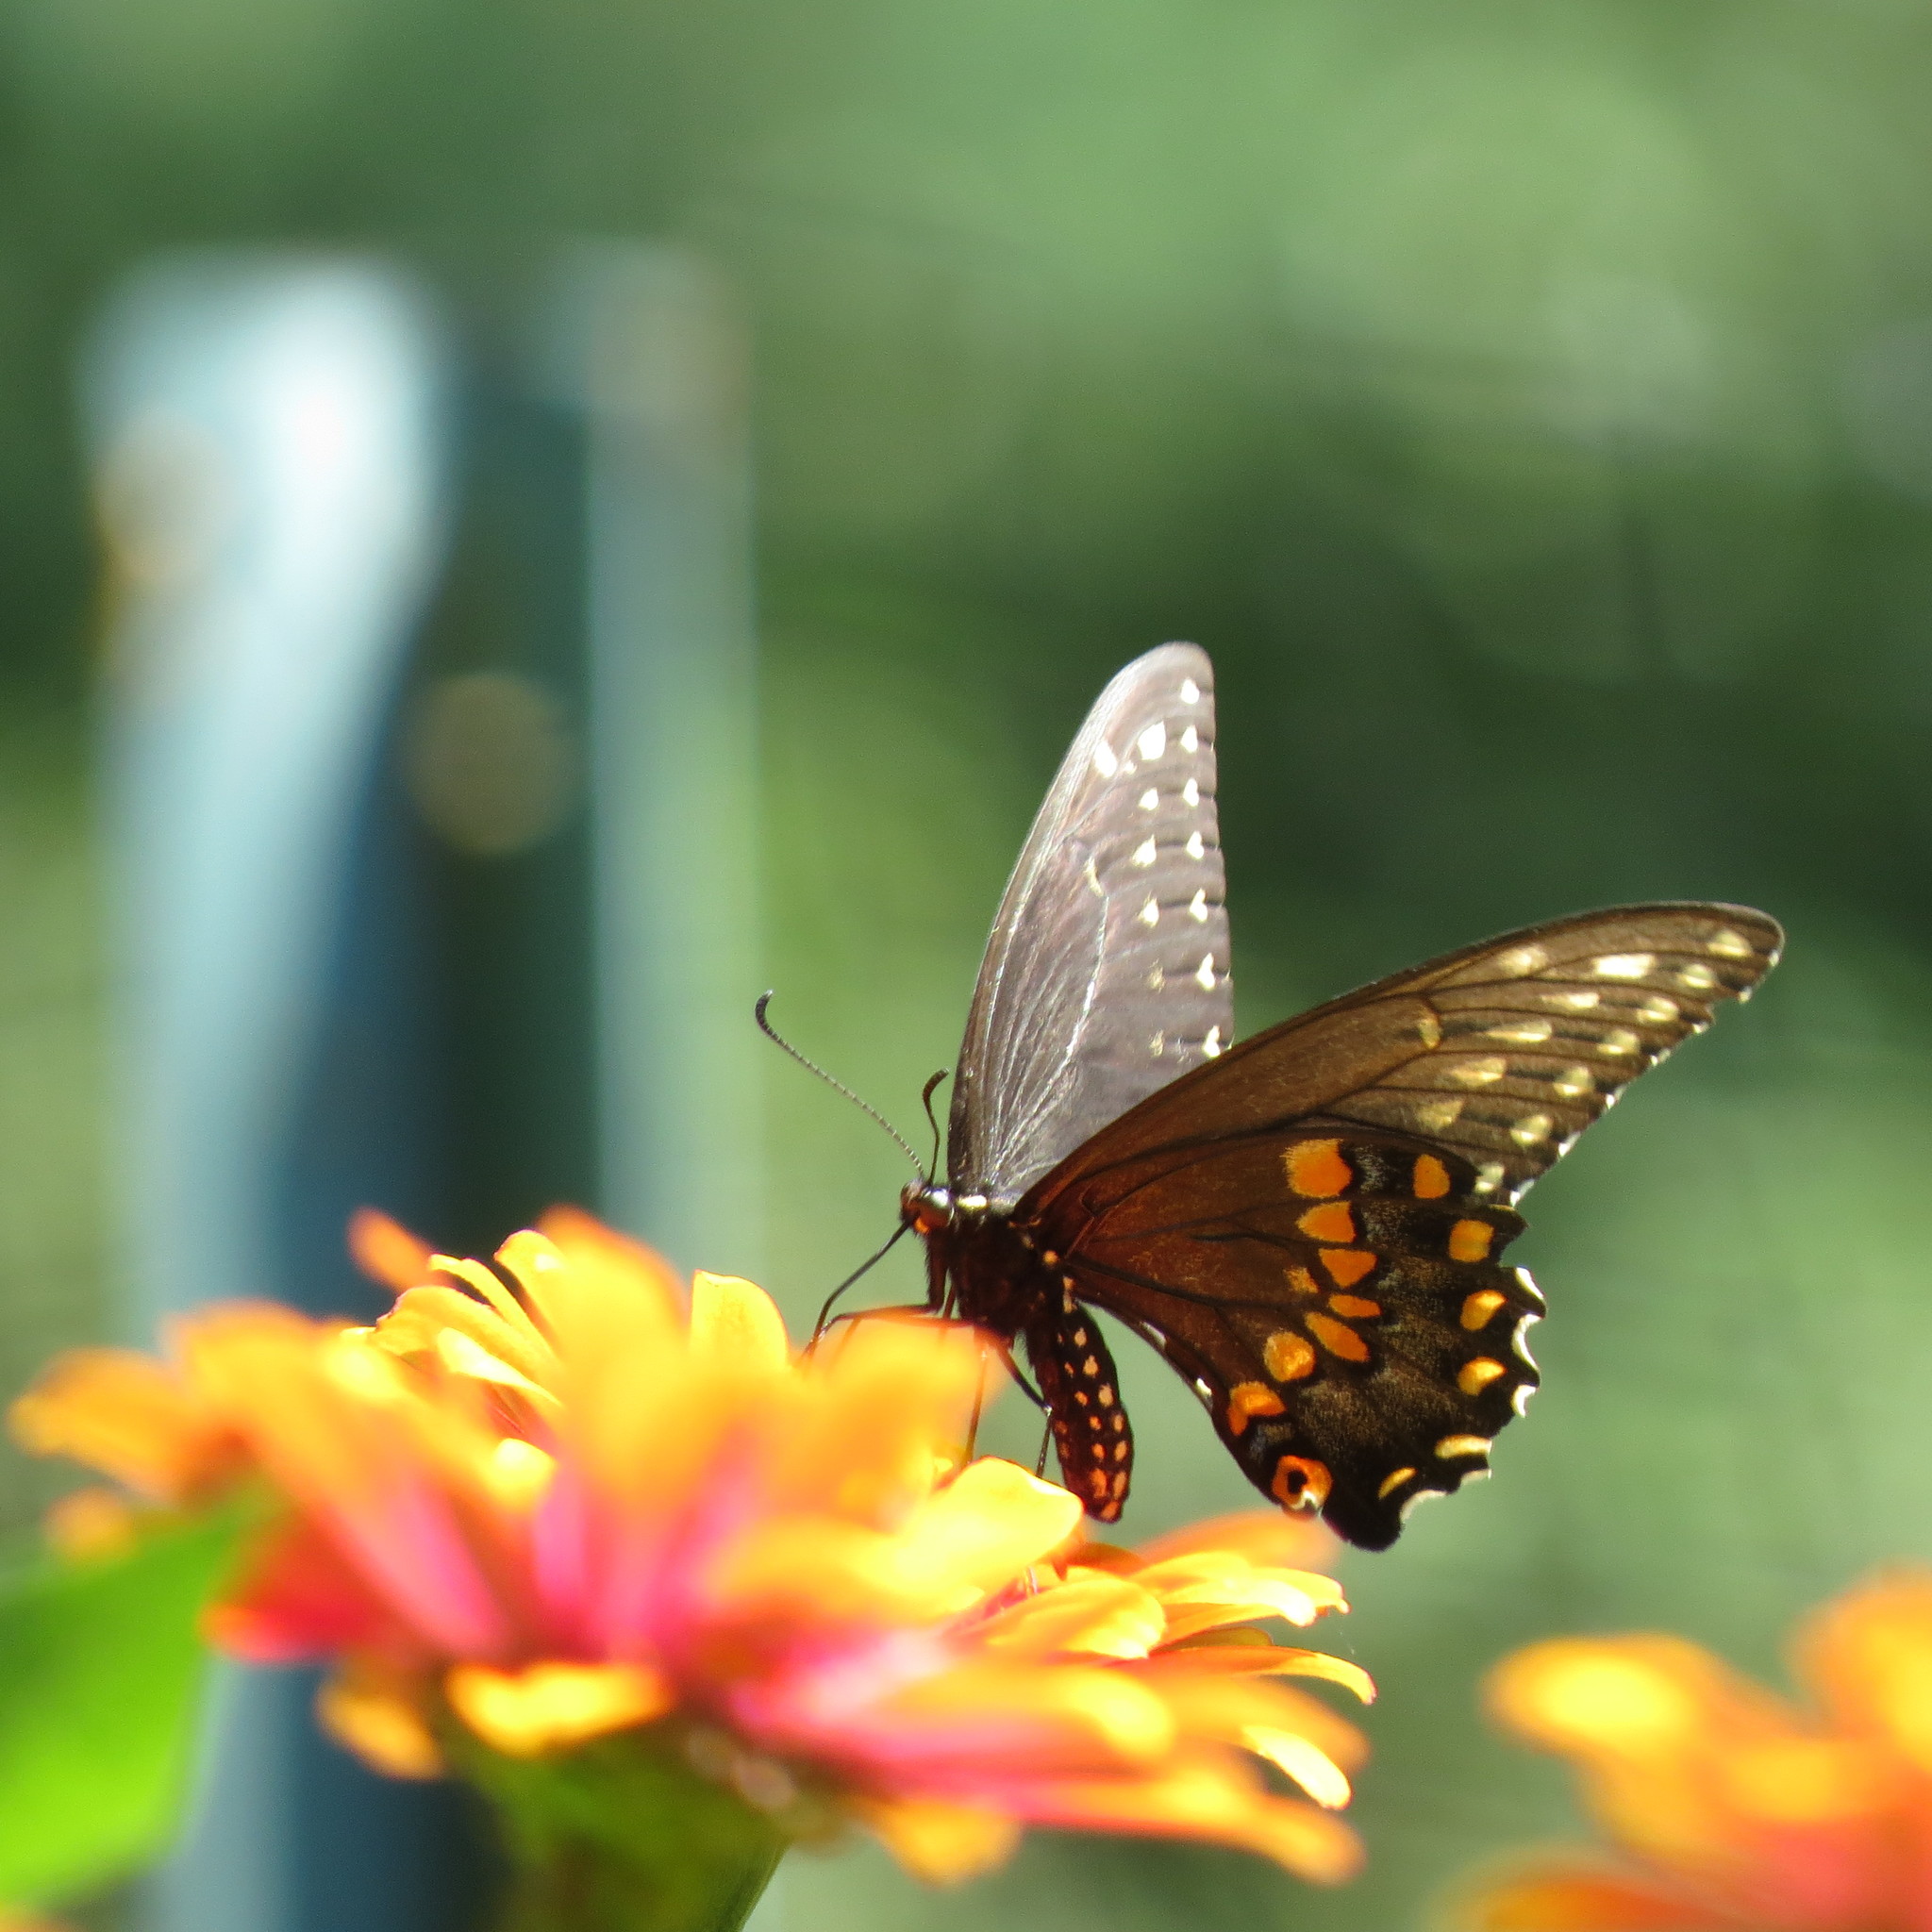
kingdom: Animalia
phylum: Arthropoda
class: Insecta
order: Lepidoptera
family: Papilionidae
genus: Papilio
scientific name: Papilio polyxenes
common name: Black swallowtail
